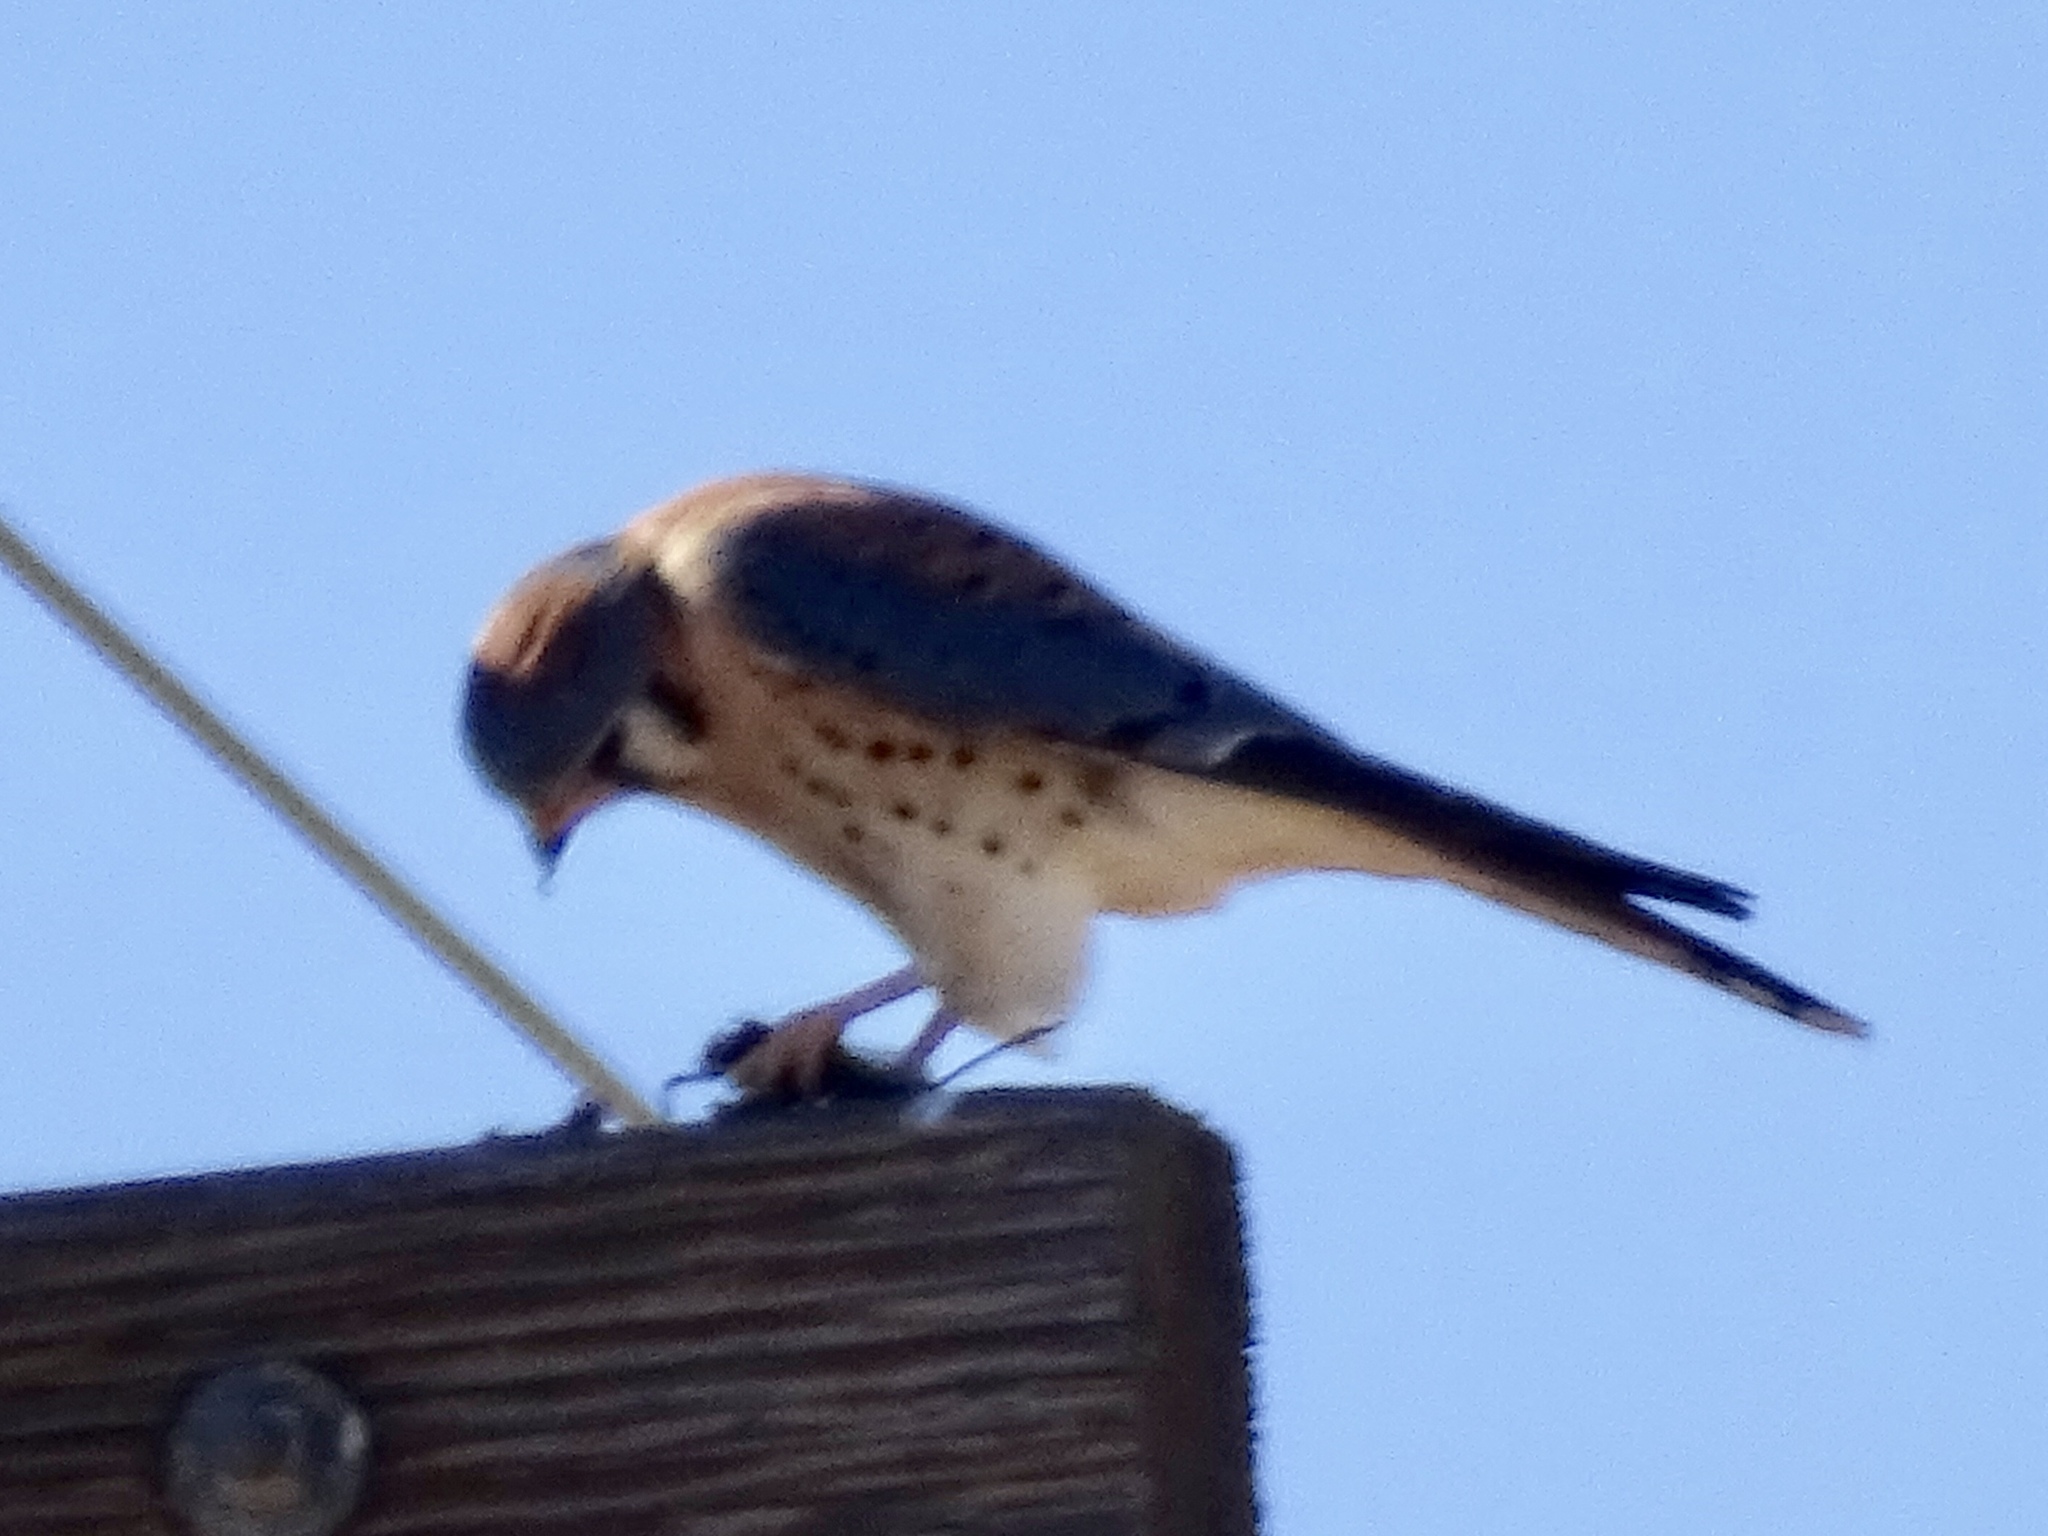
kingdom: Animalia
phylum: Chordata
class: Aves
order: Falconiformes
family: Falconidae
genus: Falco
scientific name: Falco sparverius
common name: American kestrel
